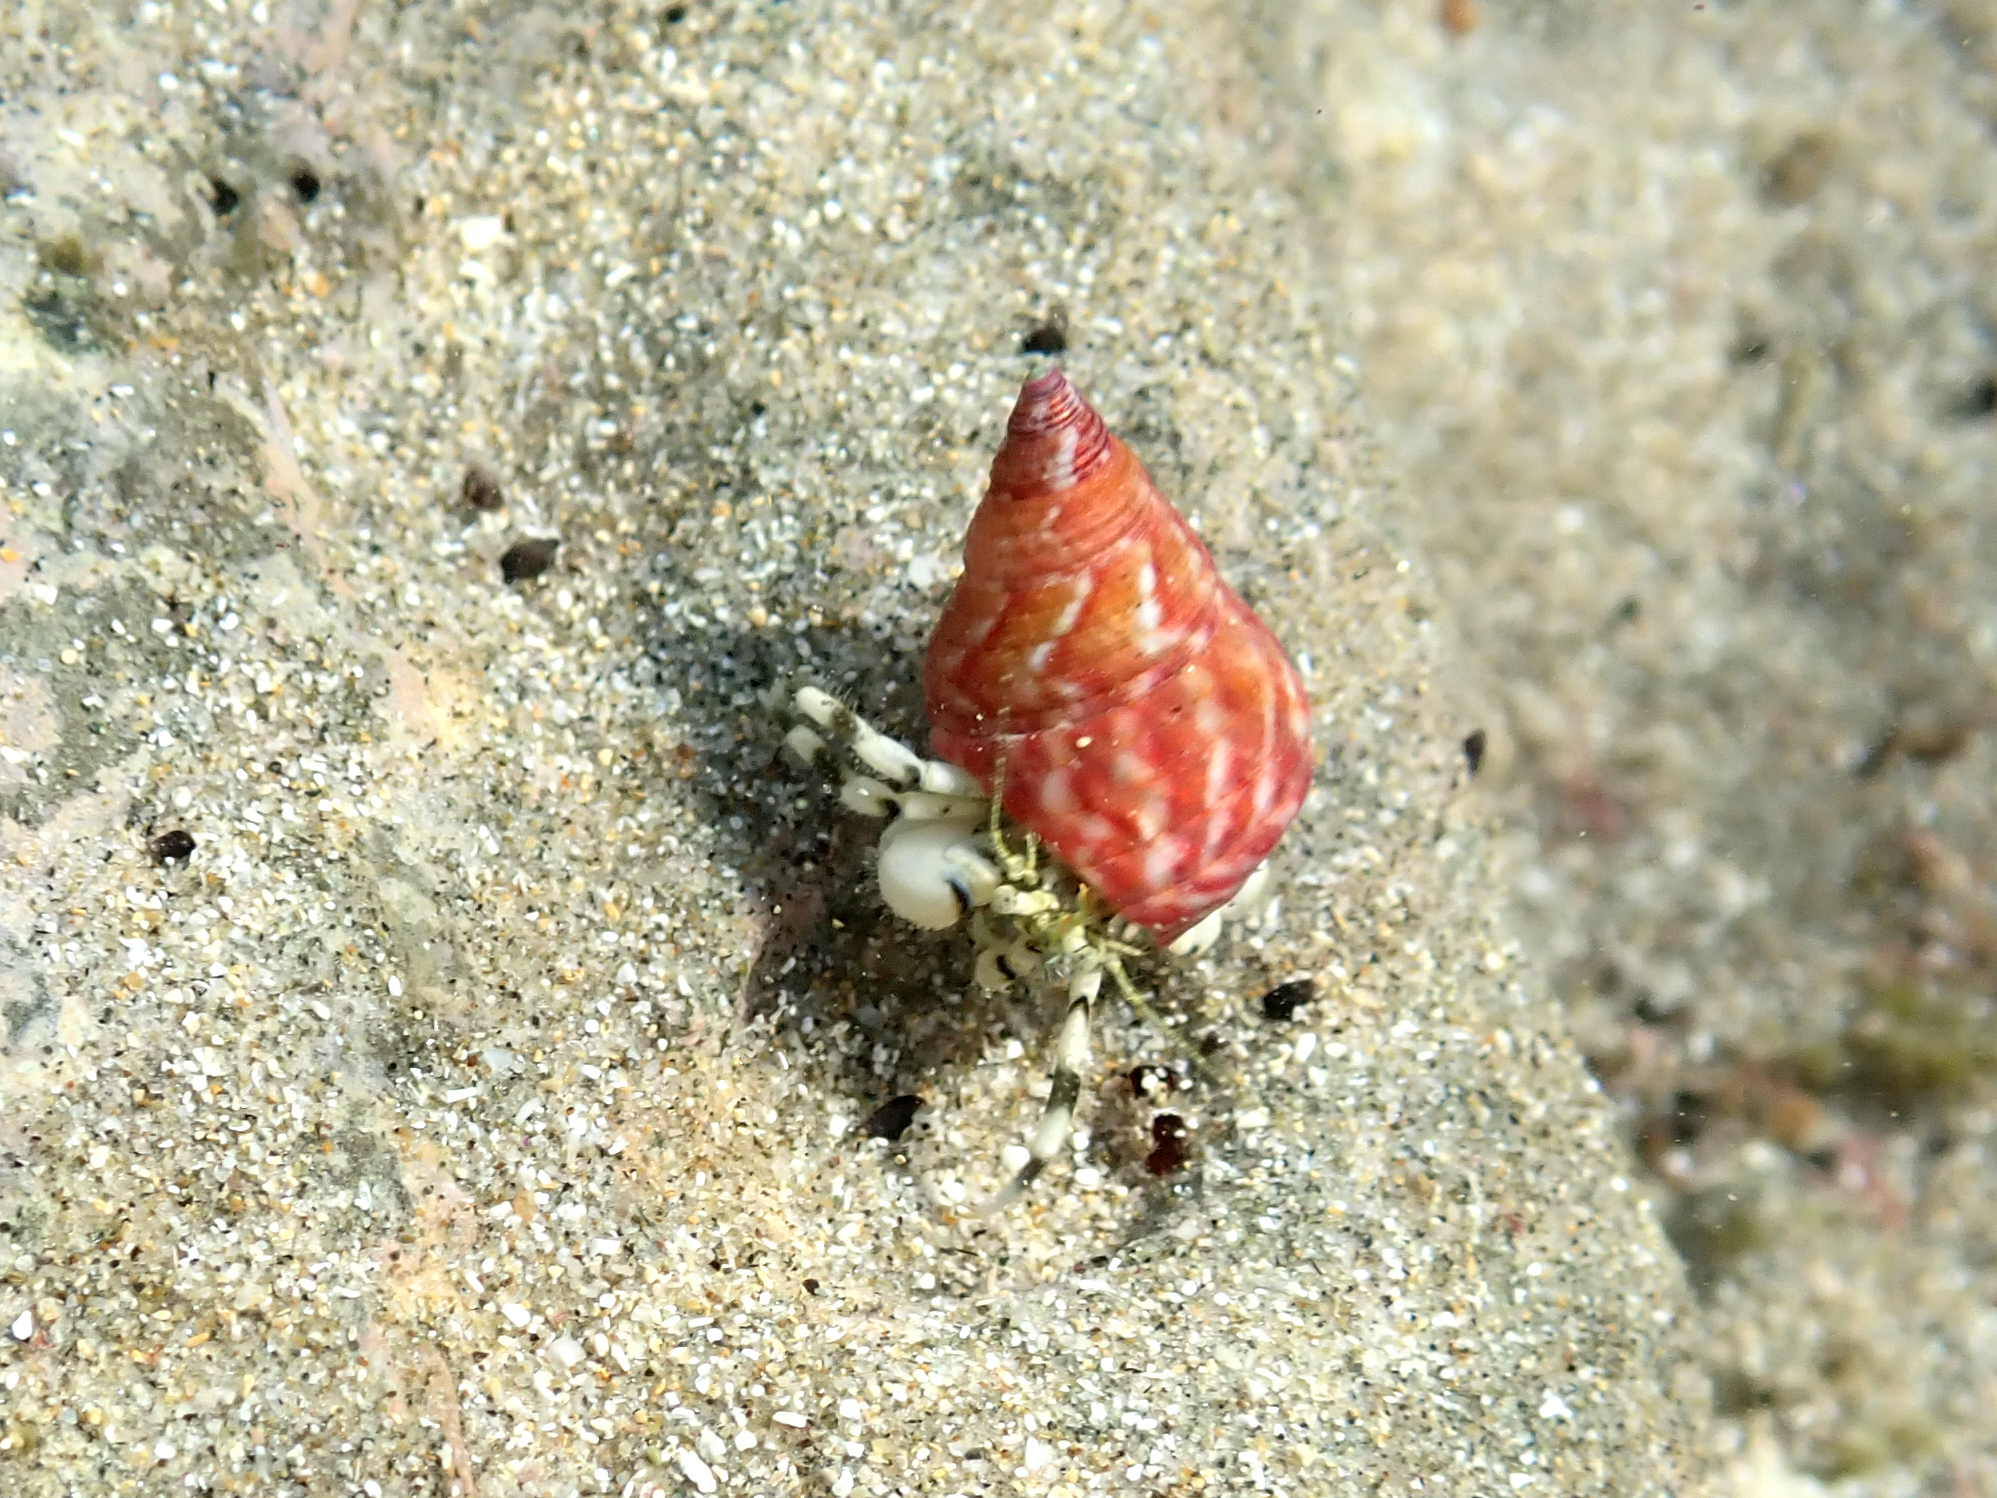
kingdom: Animalia
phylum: Mollusca
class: Gastropoda
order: Trochida
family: Trochidae
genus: Micrelenchus
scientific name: Micrelenchus purpureus
